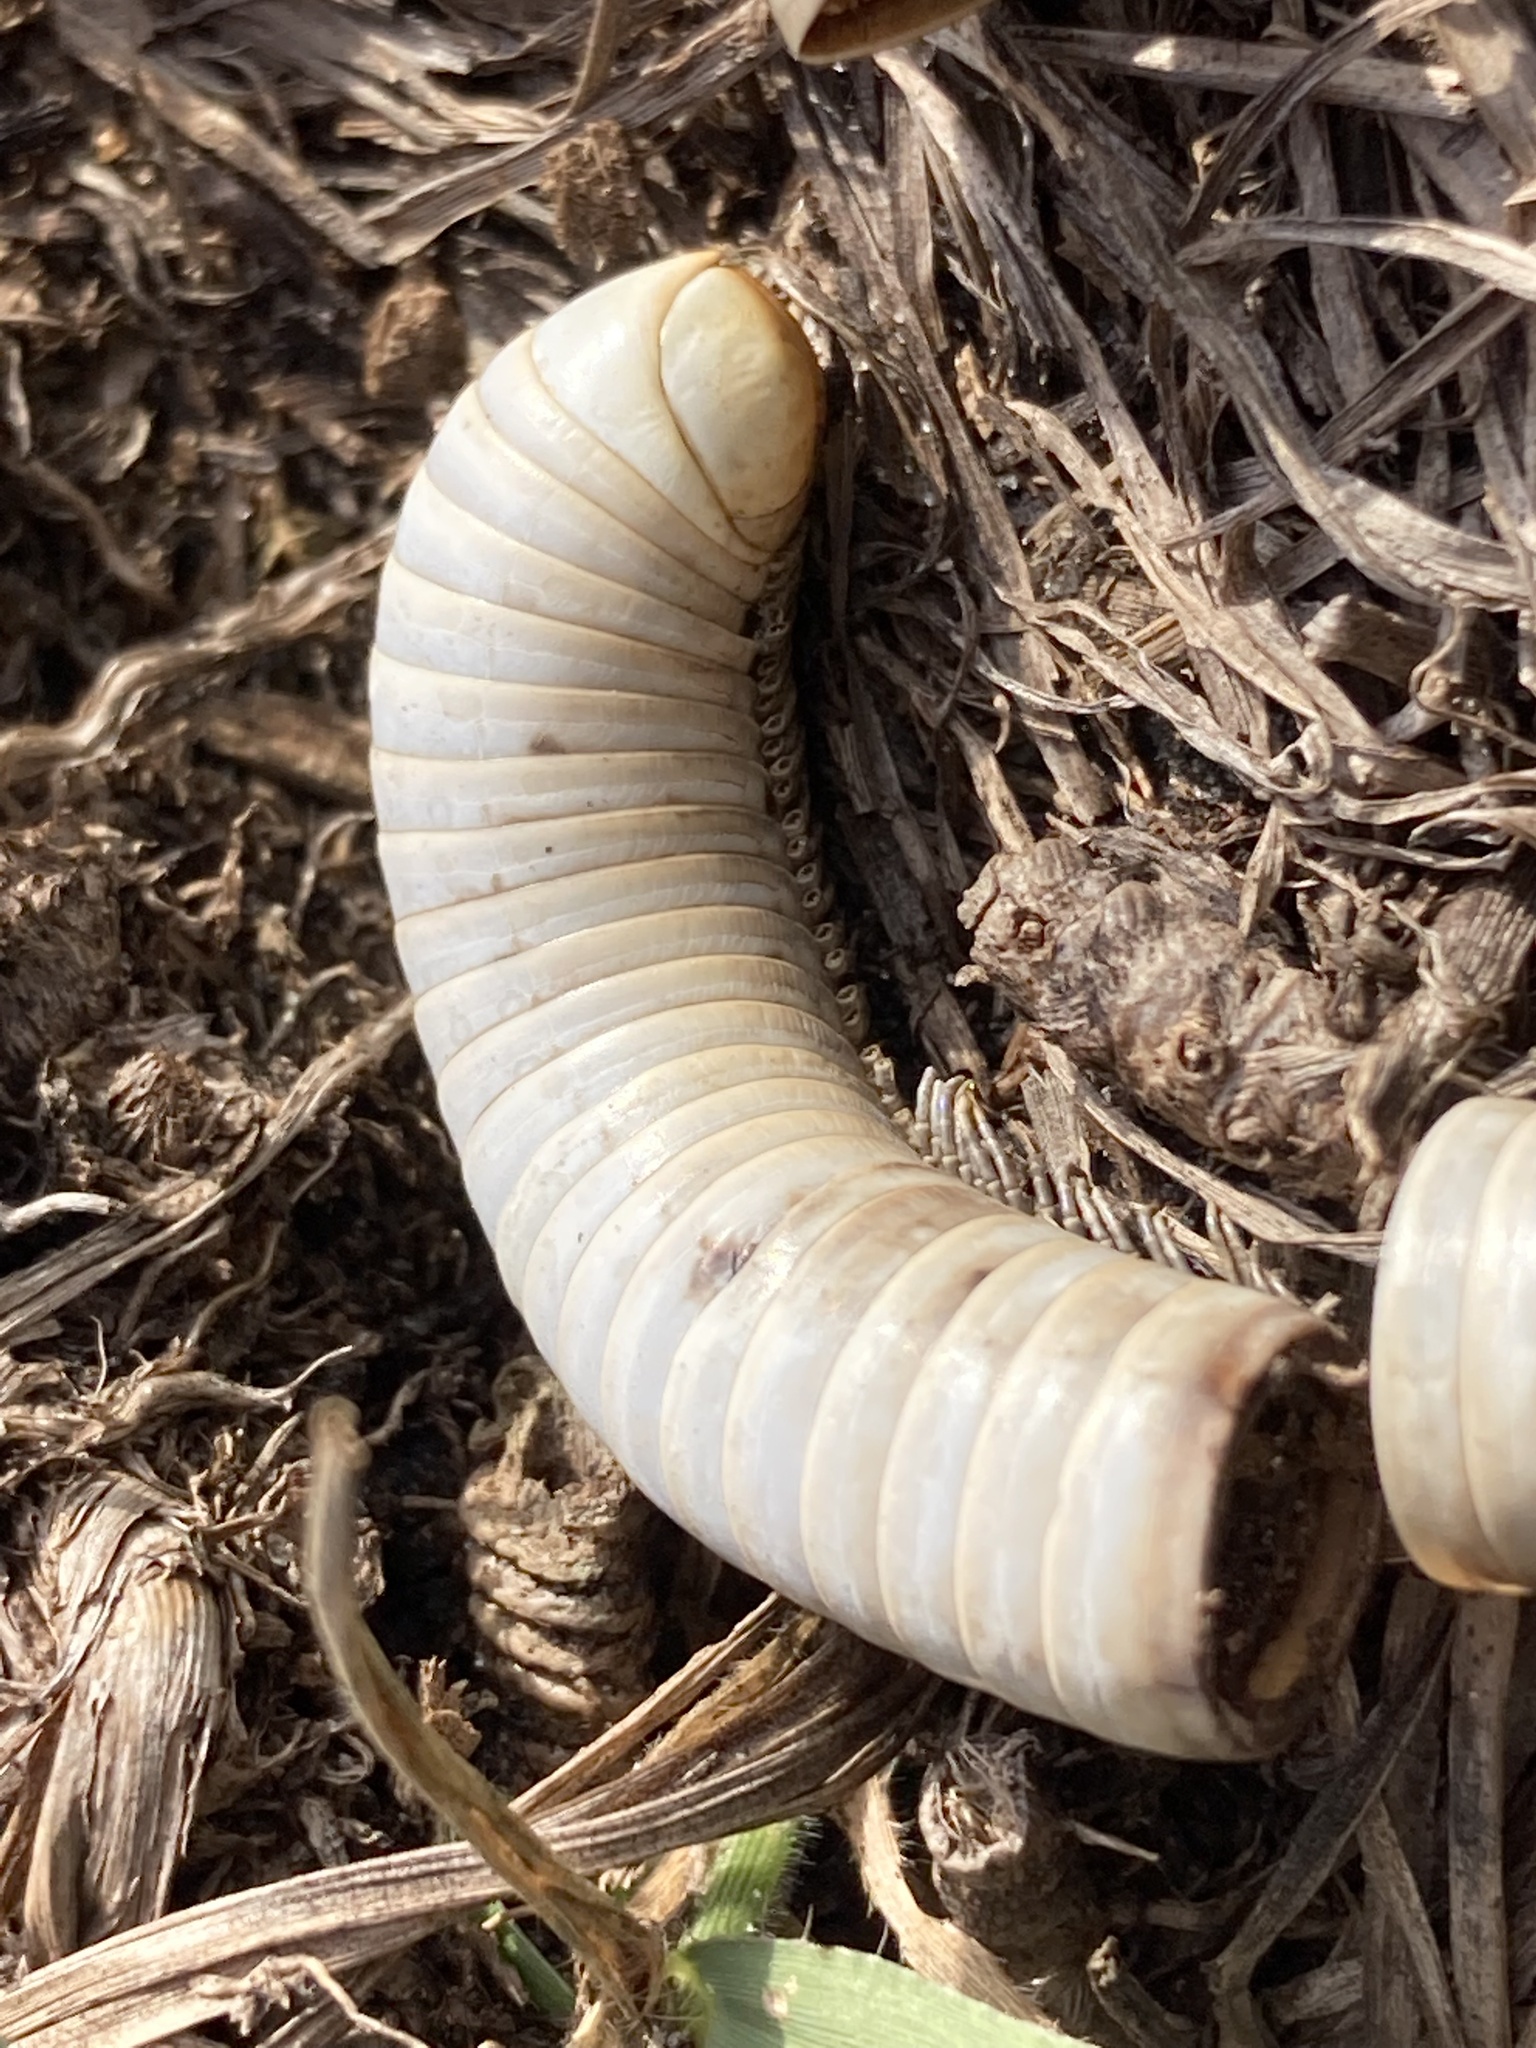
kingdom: Animalia
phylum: Arthropoda
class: Diplopoda
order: Spirobolida
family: Spirobolidae
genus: Narceus
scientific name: Narceus gordanus
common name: Grayish-green millipede
